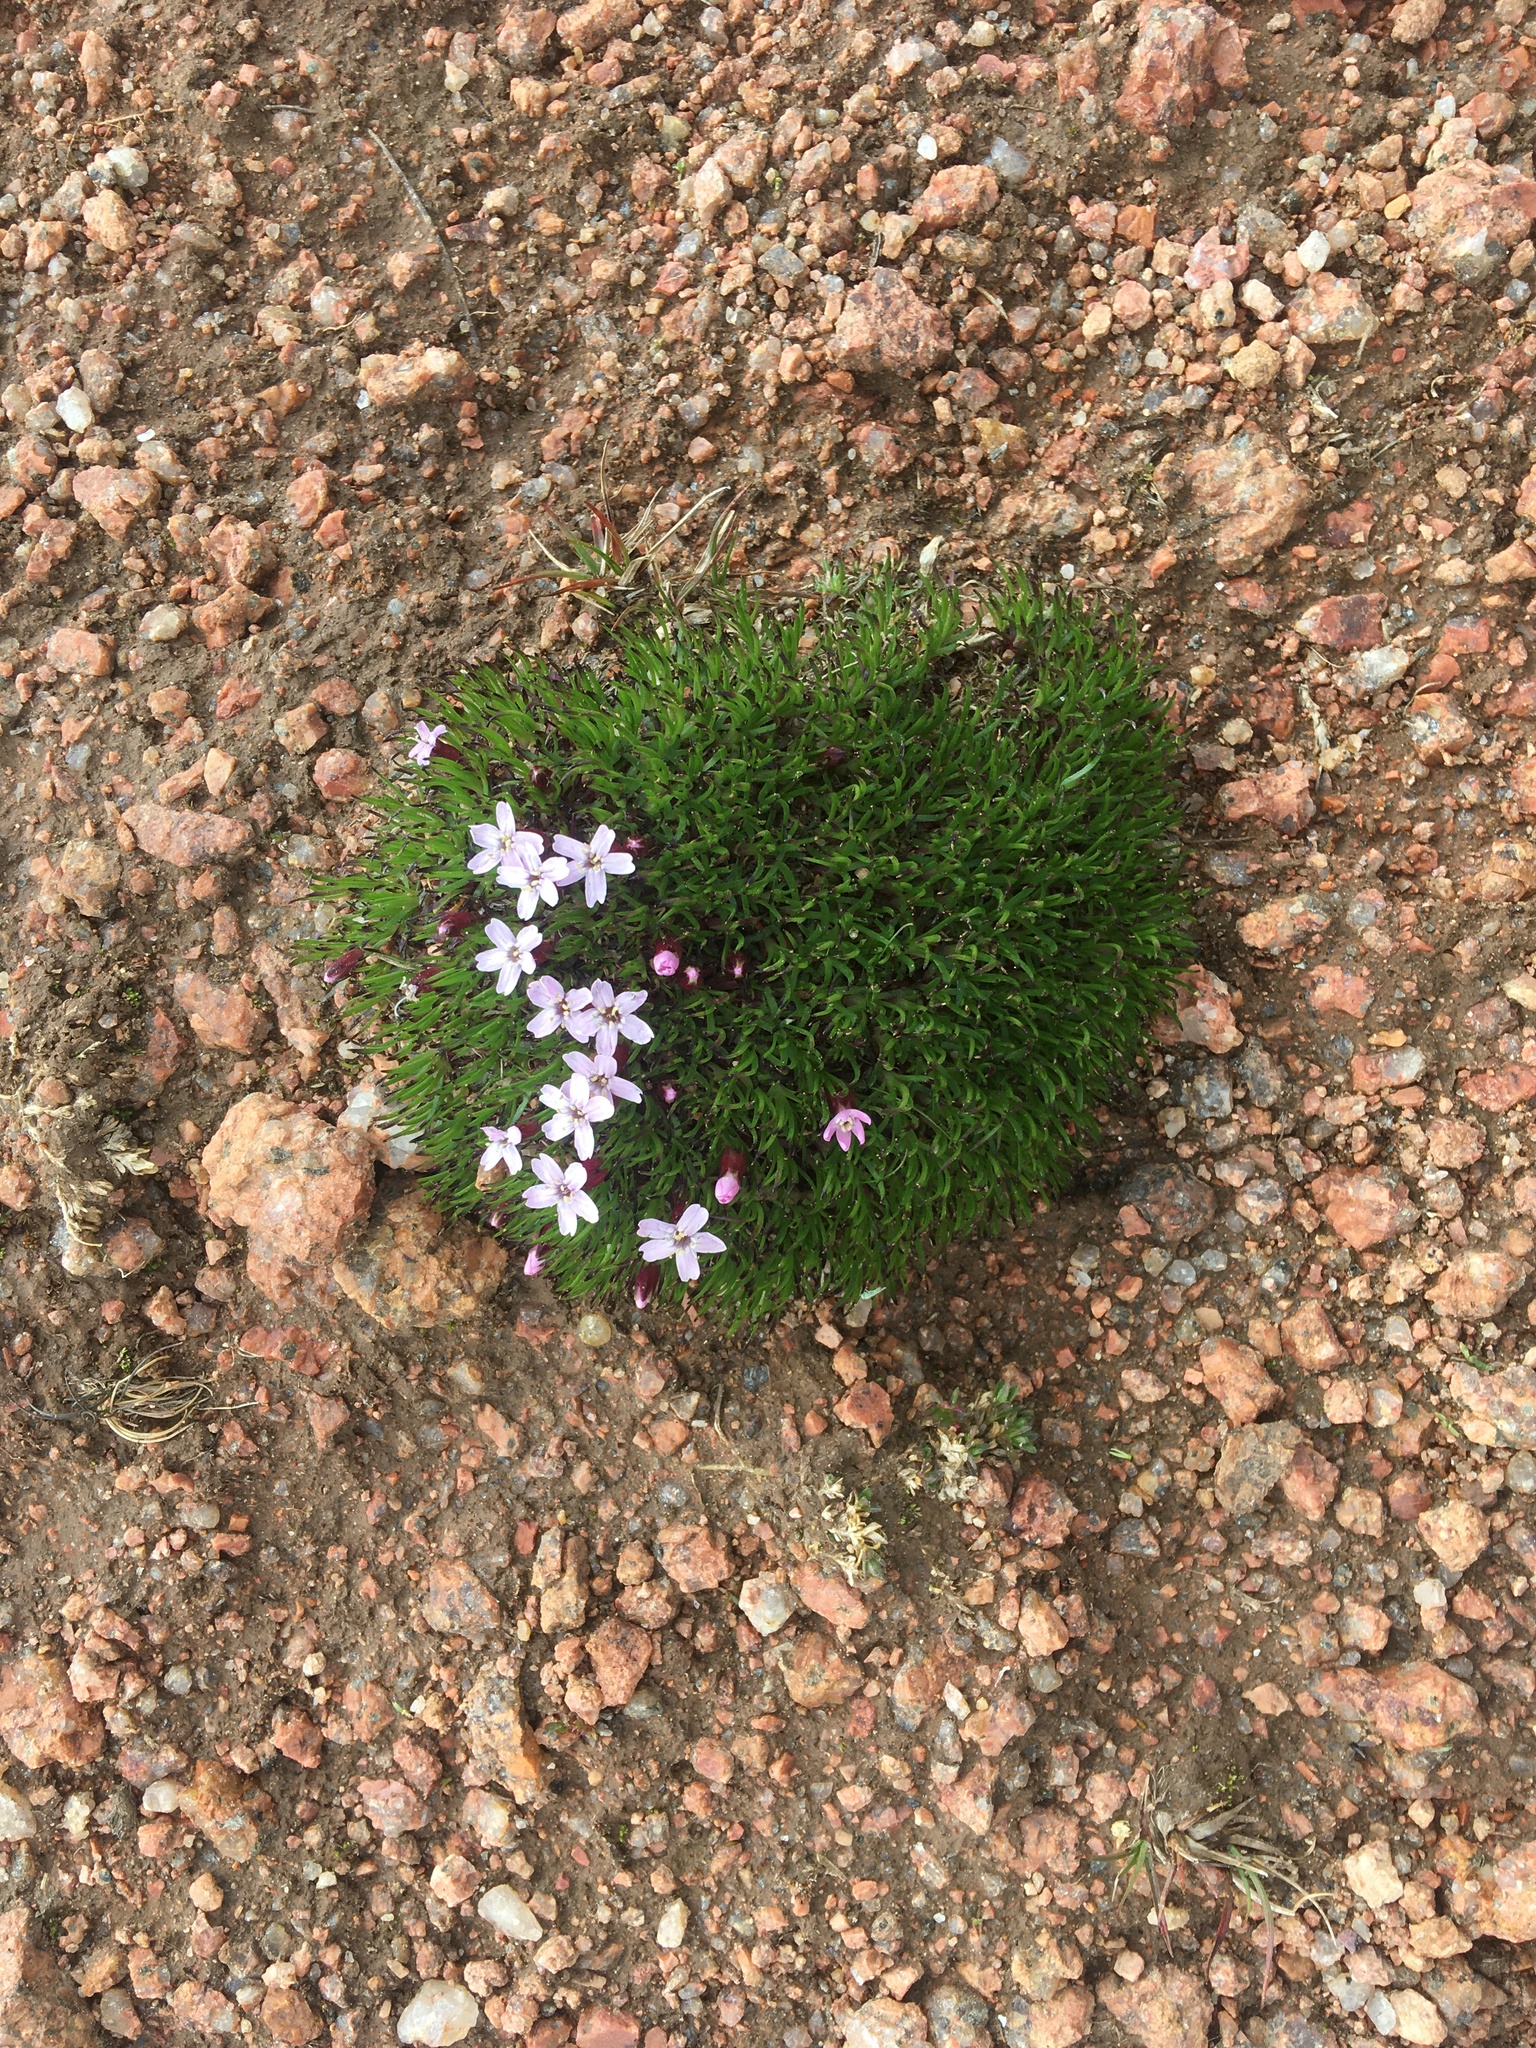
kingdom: Plantae
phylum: Tracheophyta
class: Magnoliopsida
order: Caryophyllales
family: Caryophyllaceae
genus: Silene
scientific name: Silene acaulis
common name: Moss campion
